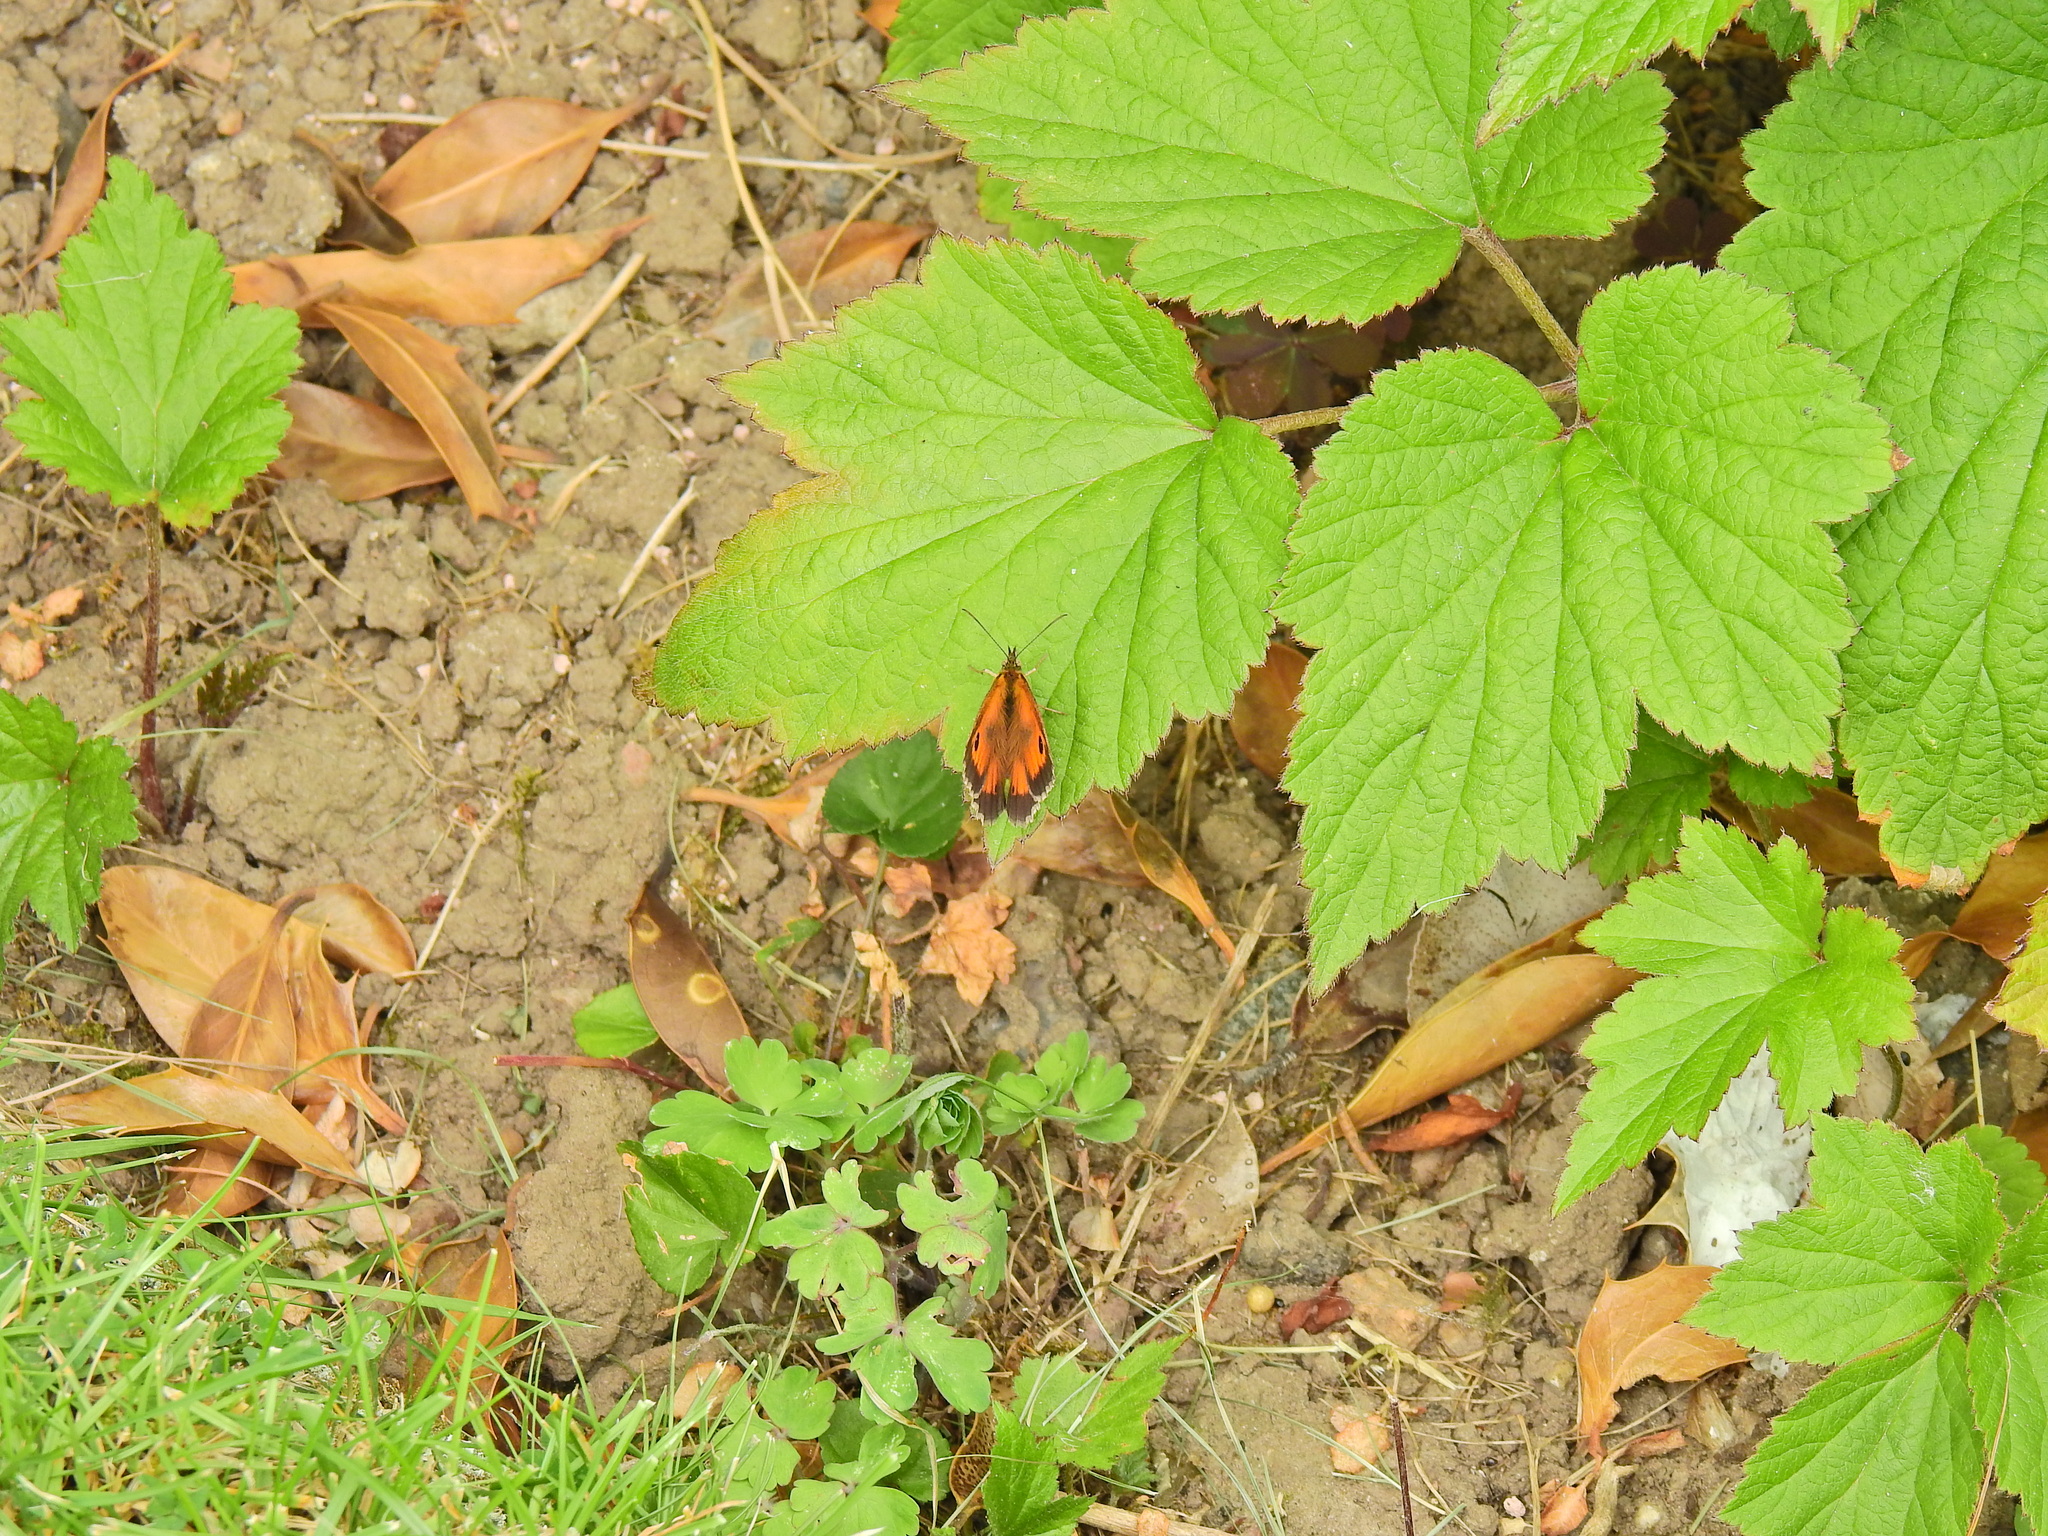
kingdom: Animalia
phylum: Arthropoda
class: Insecta
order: Lepidoptera
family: Nymphalidae
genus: Pyronia
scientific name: Pyronia tithonus
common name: Gatekeeper
